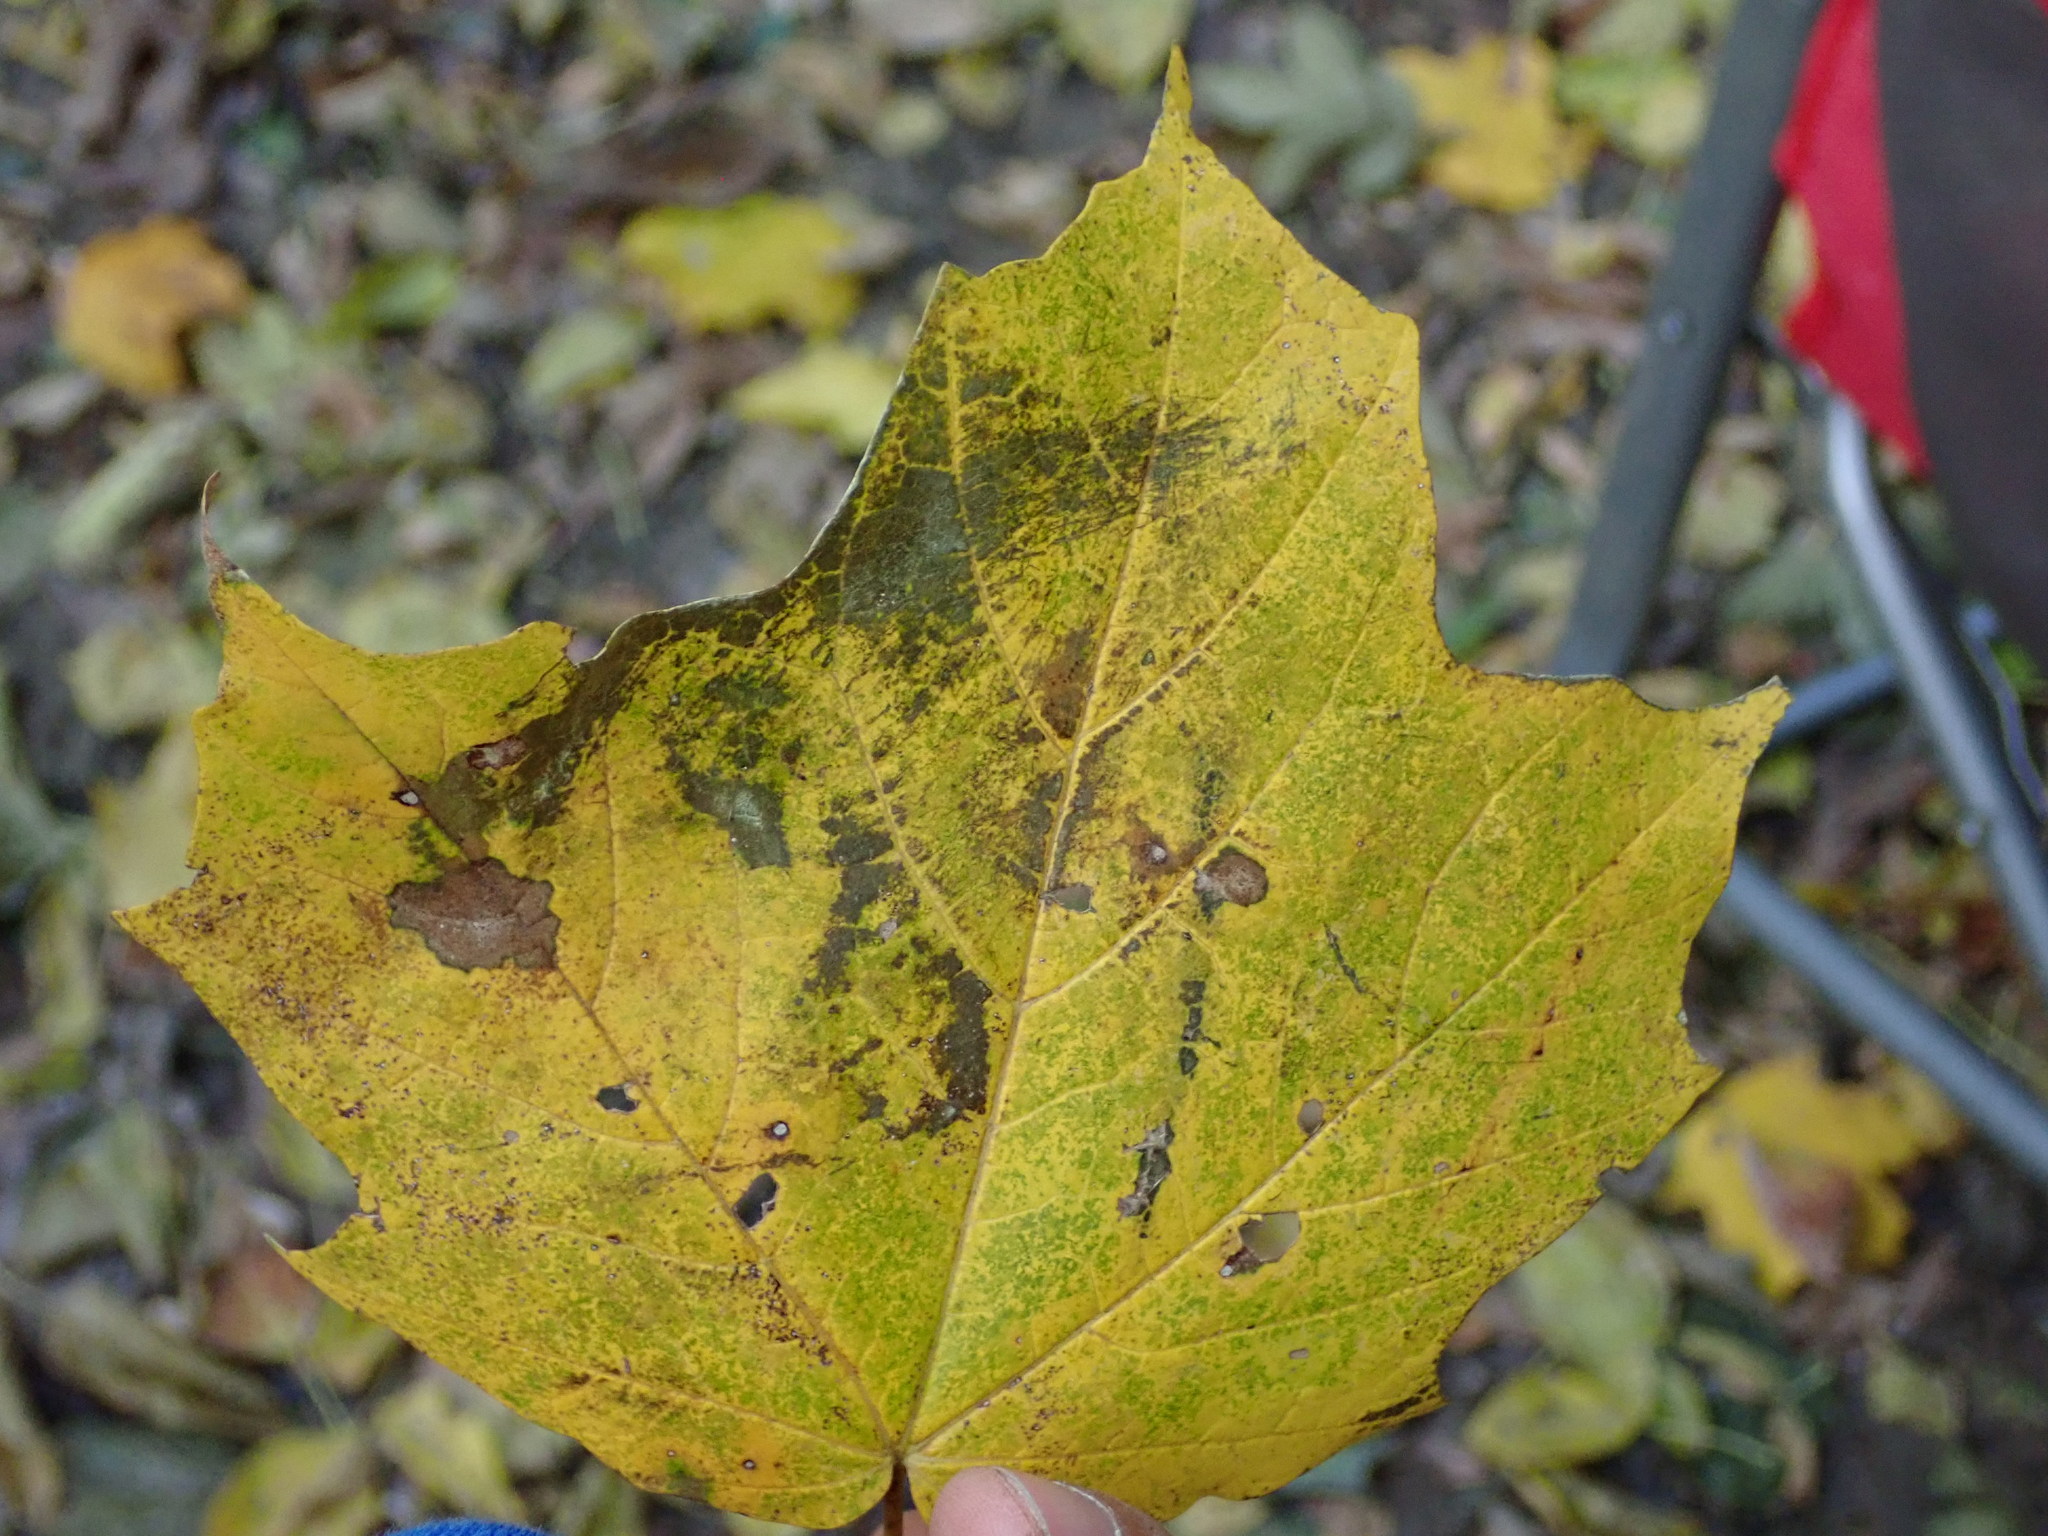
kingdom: Plantae
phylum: Tracheophyta
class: Magnoliopsida
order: Sapindales
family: Sapindaceae
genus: Acer
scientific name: Acer nigrum
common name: Black maple
